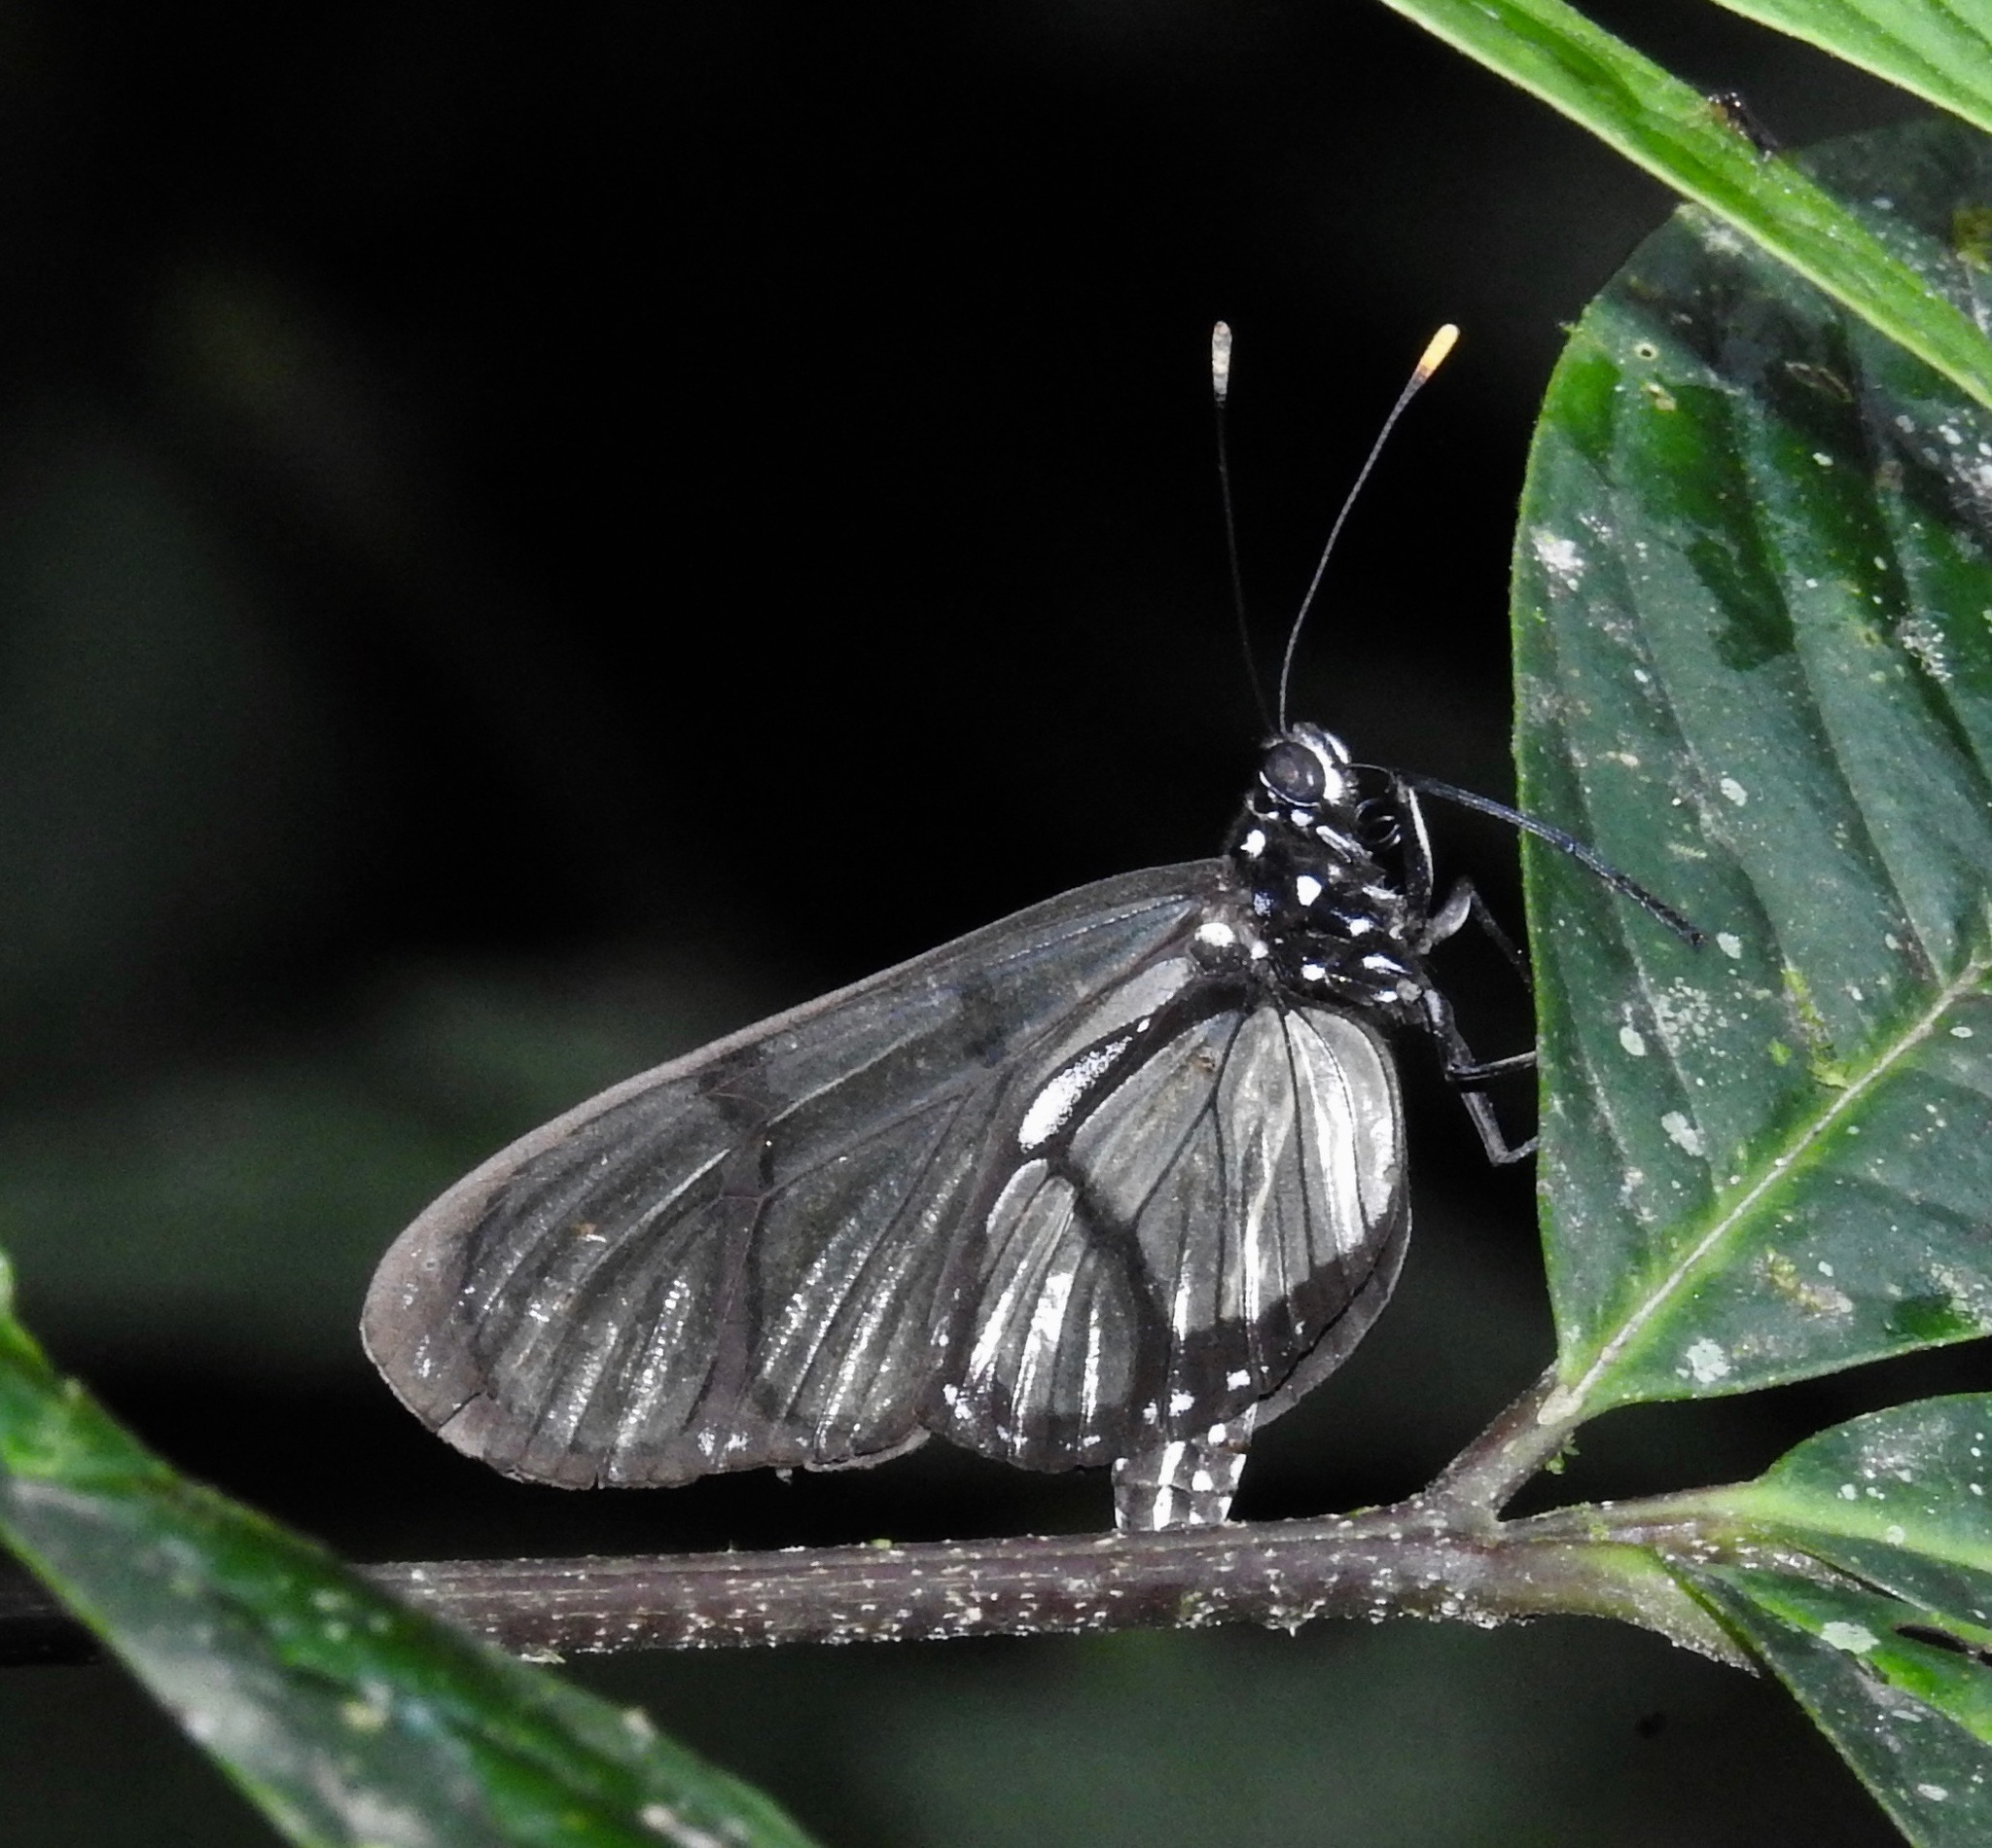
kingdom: Animalia
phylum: Arthropoda
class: Insecta
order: Lepidoptera
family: Nymphalidae
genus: Methona
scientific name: Methona confusa
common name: Confusa tigerwing
